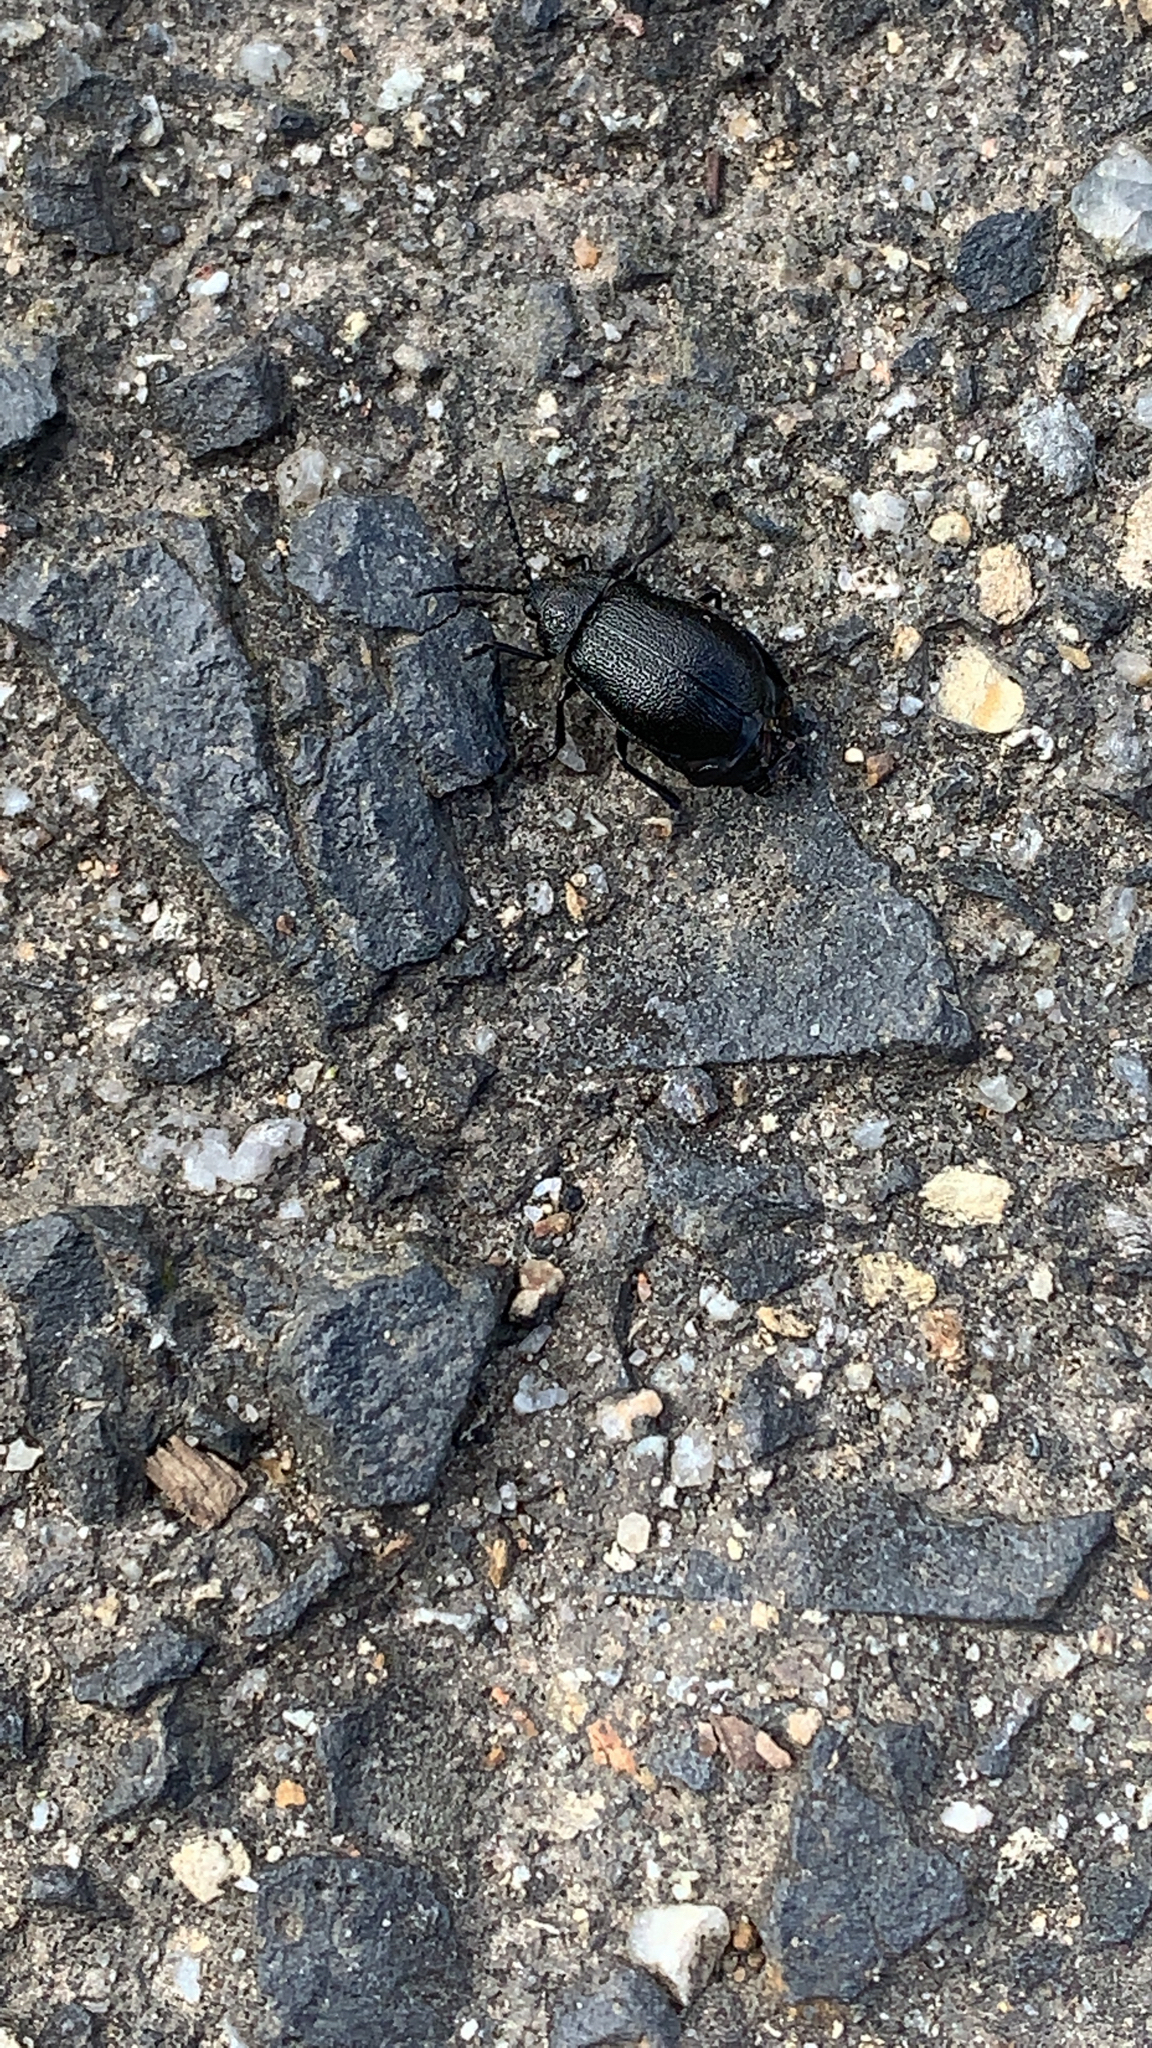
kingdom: Animalia
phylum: Arthropoda
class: Insecta
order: Coleoptera
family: Chrysomelidae
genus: Galeruca
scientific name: Galeruca tanaceti
